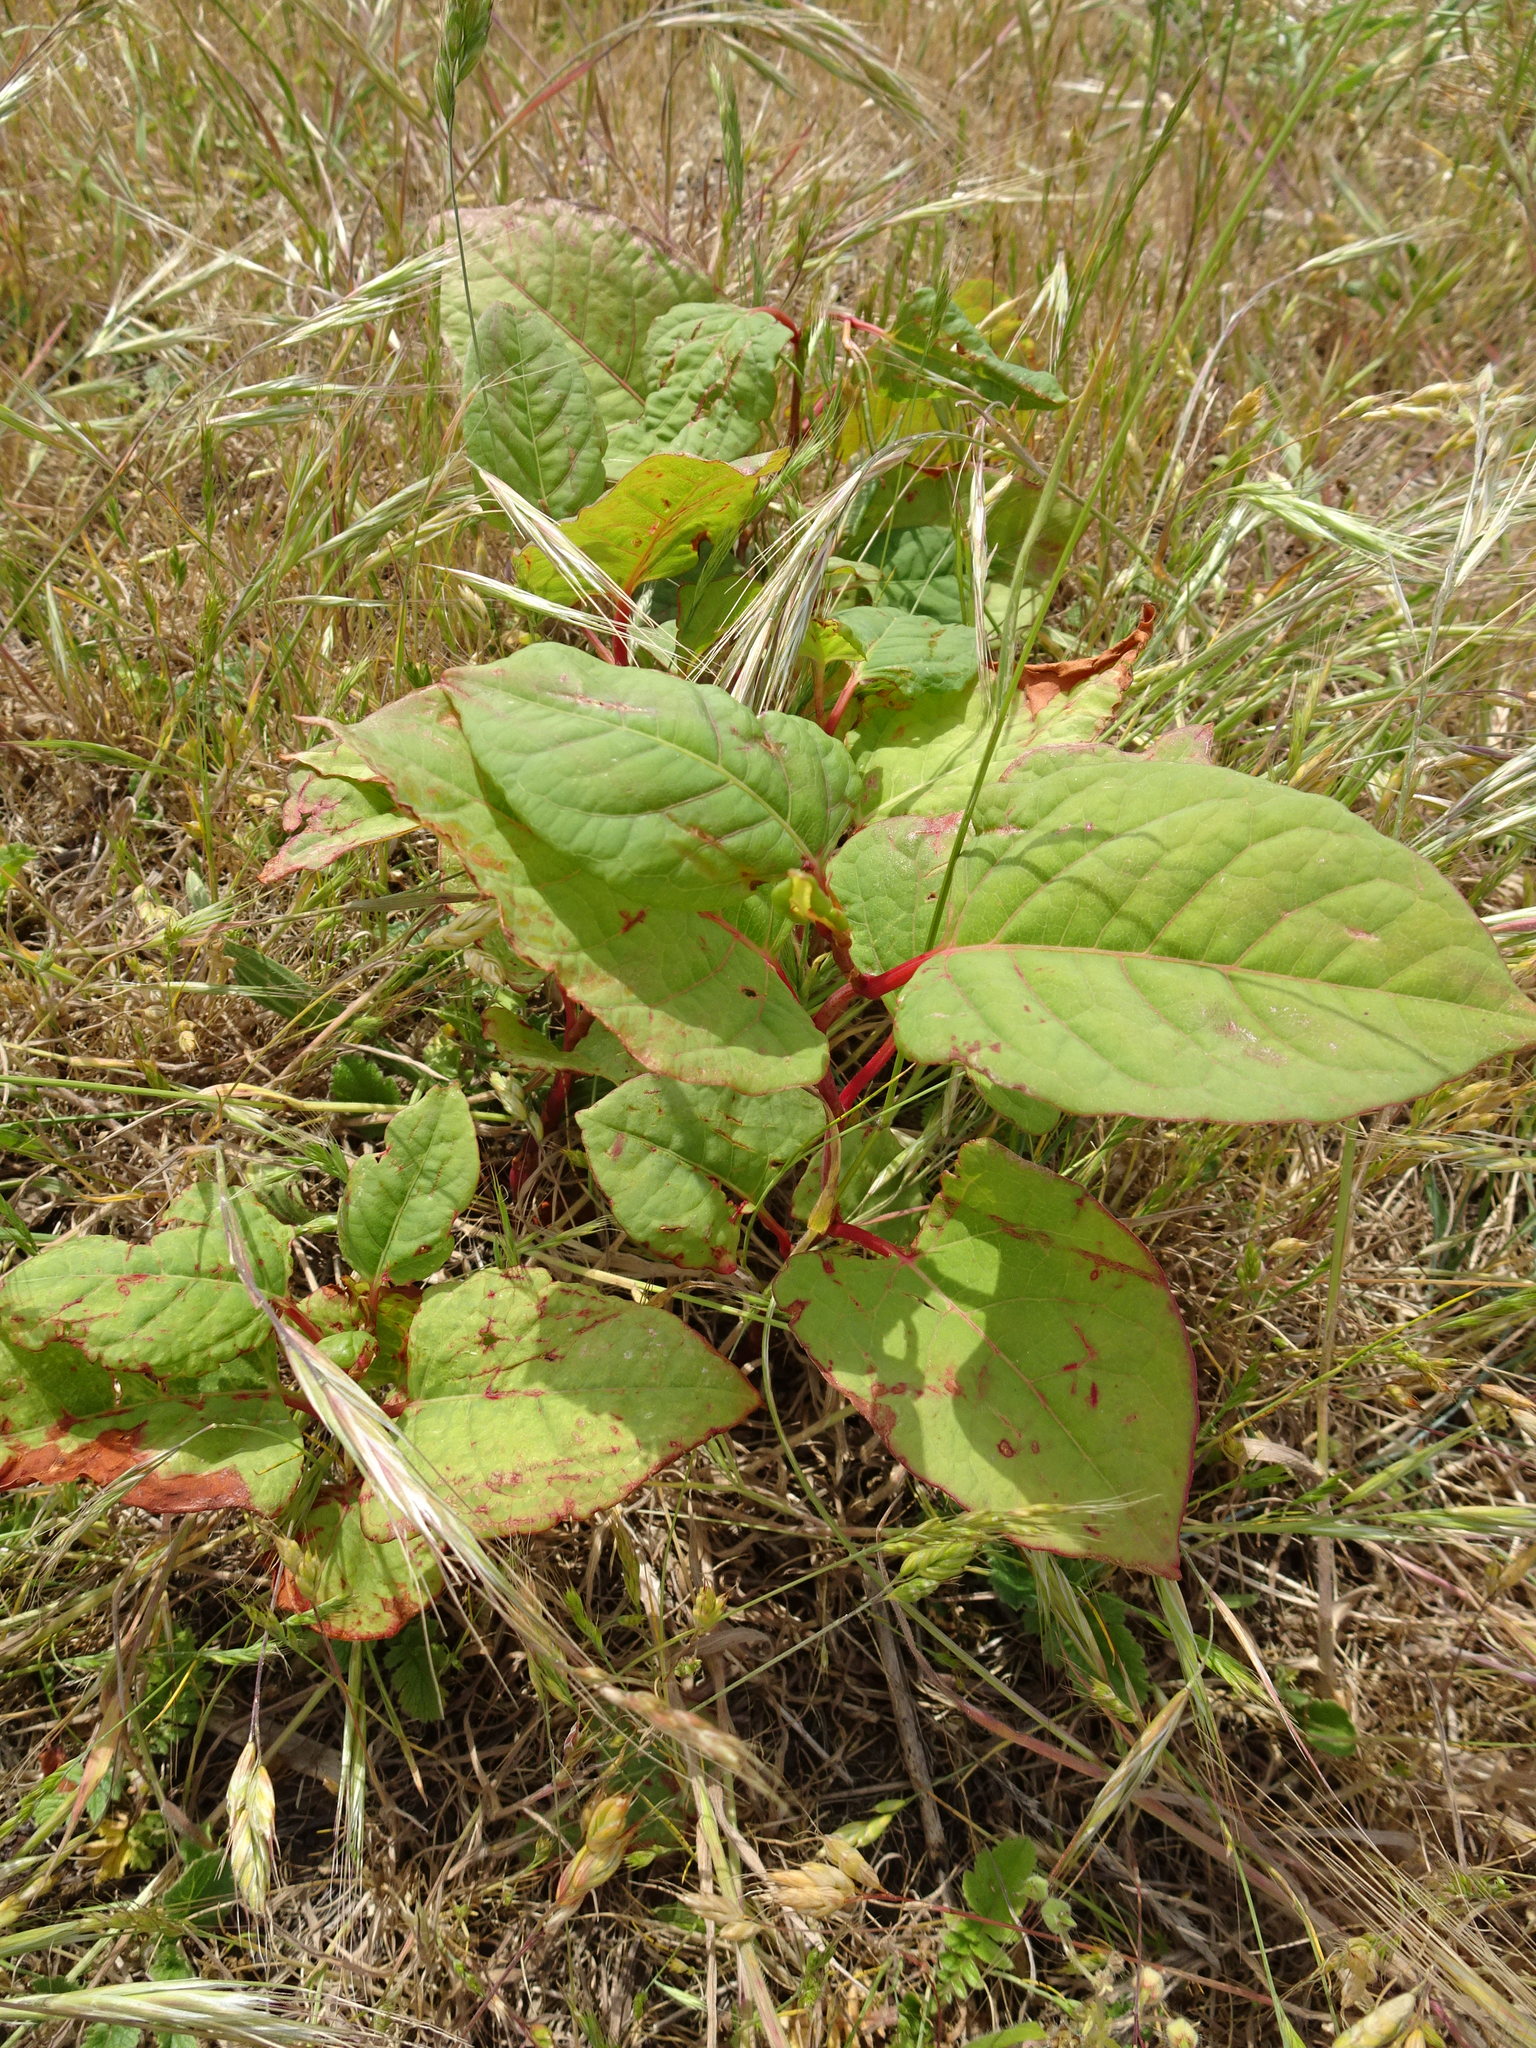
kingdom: Plantae
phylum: Tracheophyta
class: Magnoliopsida
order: Caryophyllales
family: Polygonaceae
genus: Reynoutria
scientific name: Reynoutria japonica
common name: Japanese knotweed
